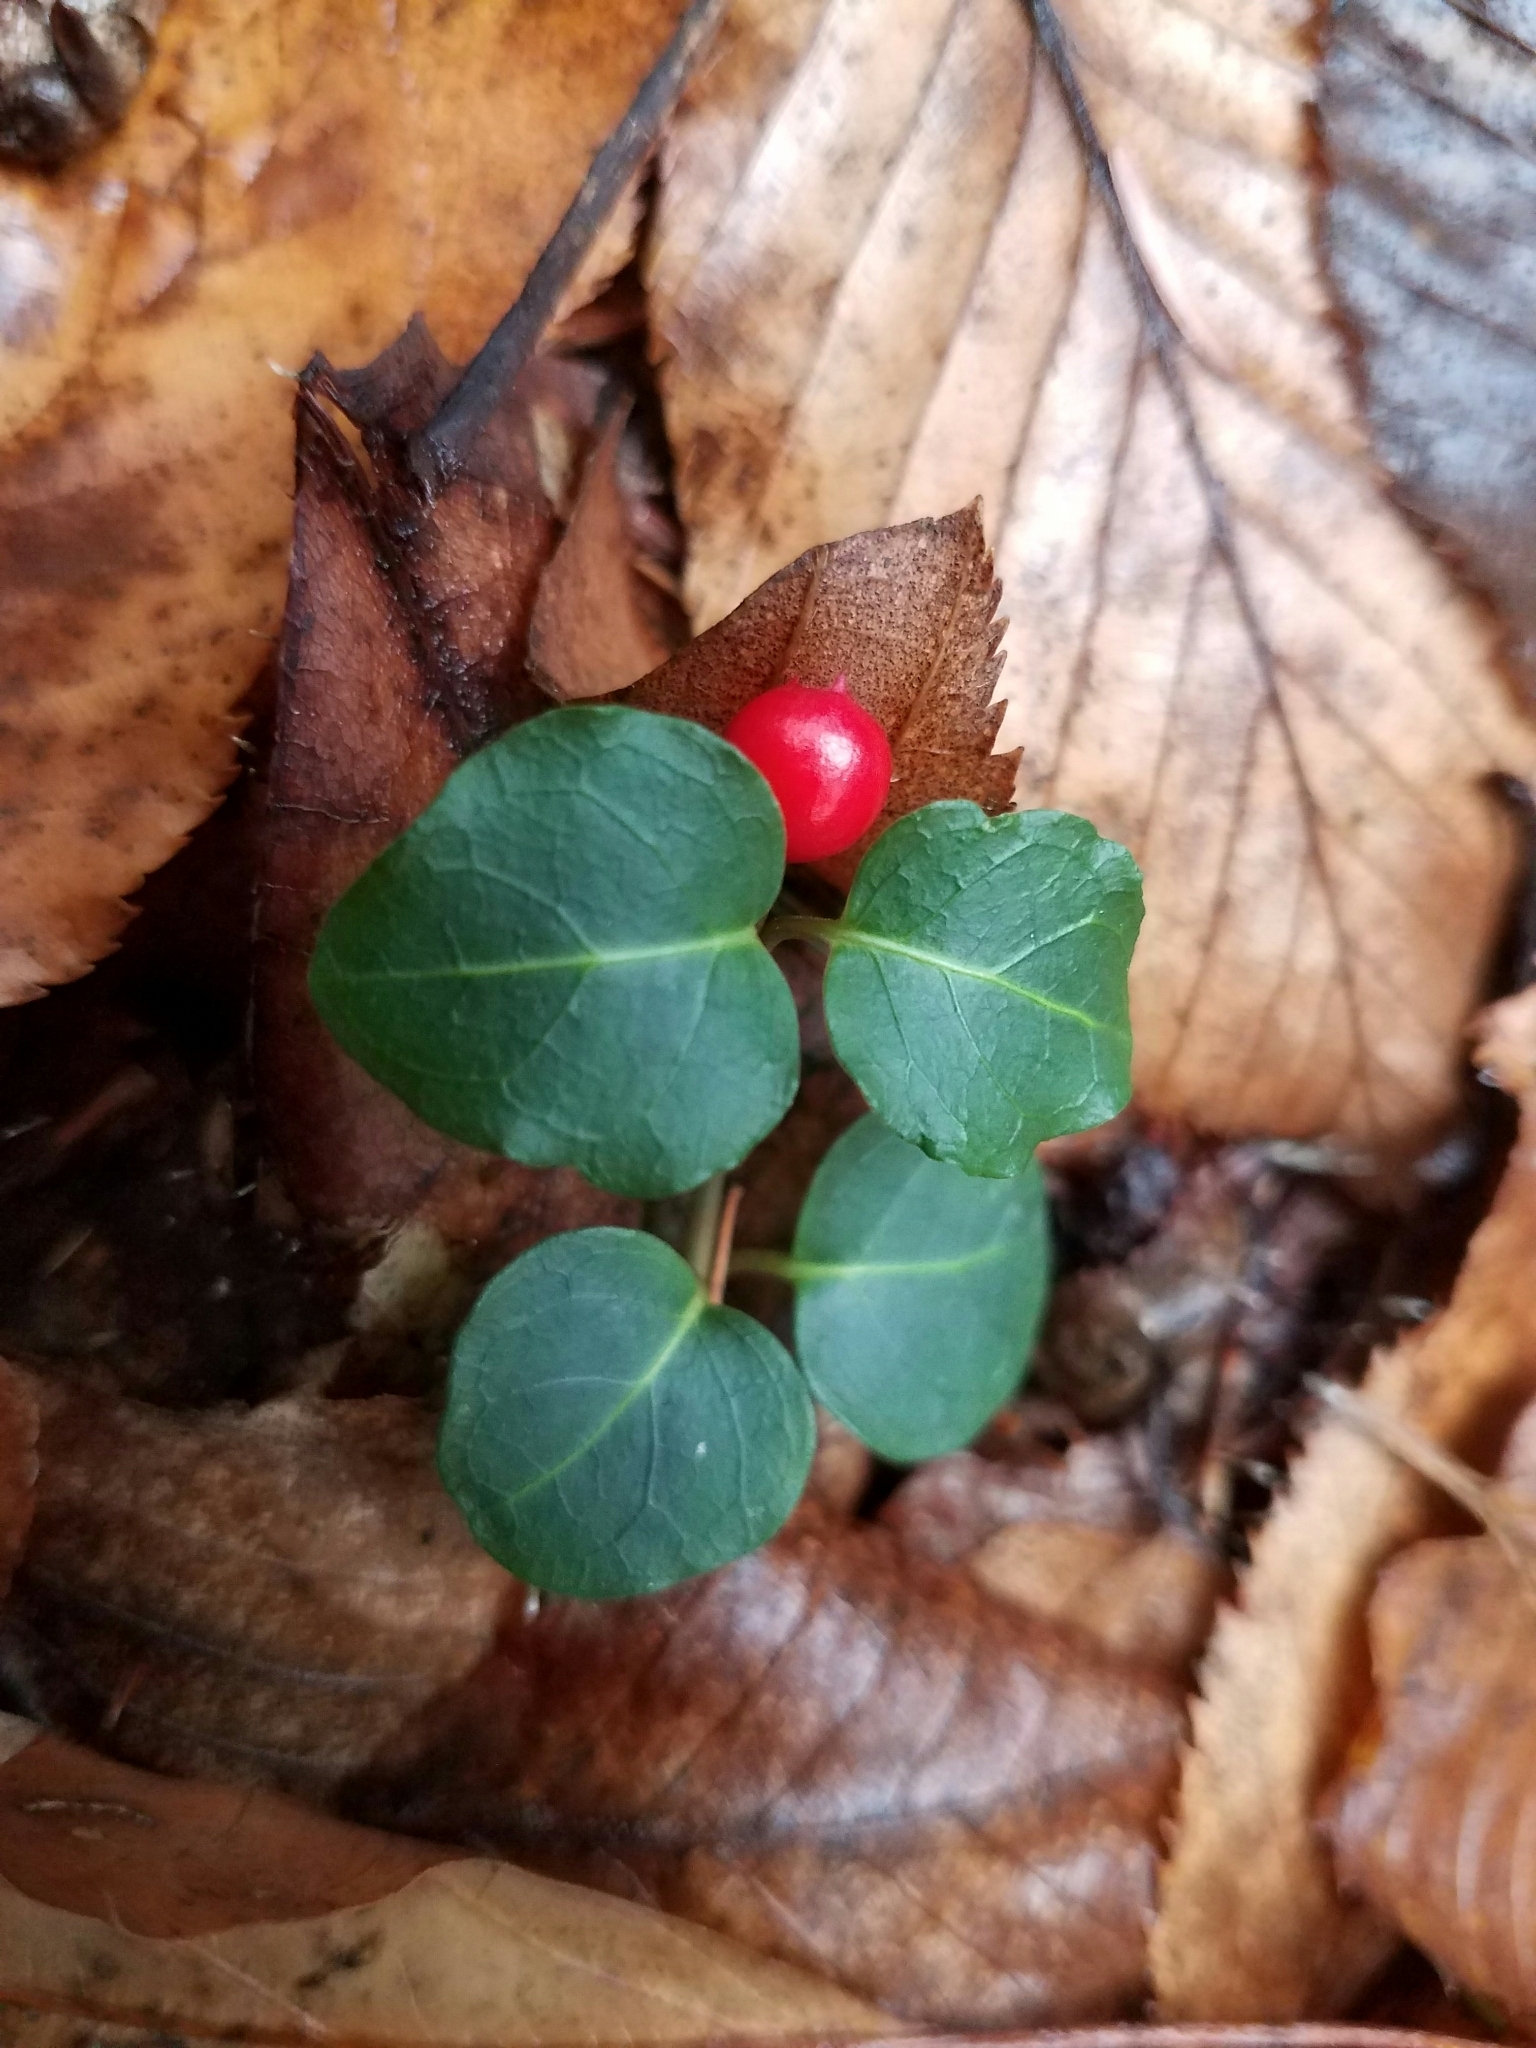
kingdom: Plantae
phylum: Tracheophyta
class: Magnoliopsida
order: Gentianales
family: Rubiaceae
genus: Mitchella
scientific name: Mitchella repens
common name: Partridge-berry
